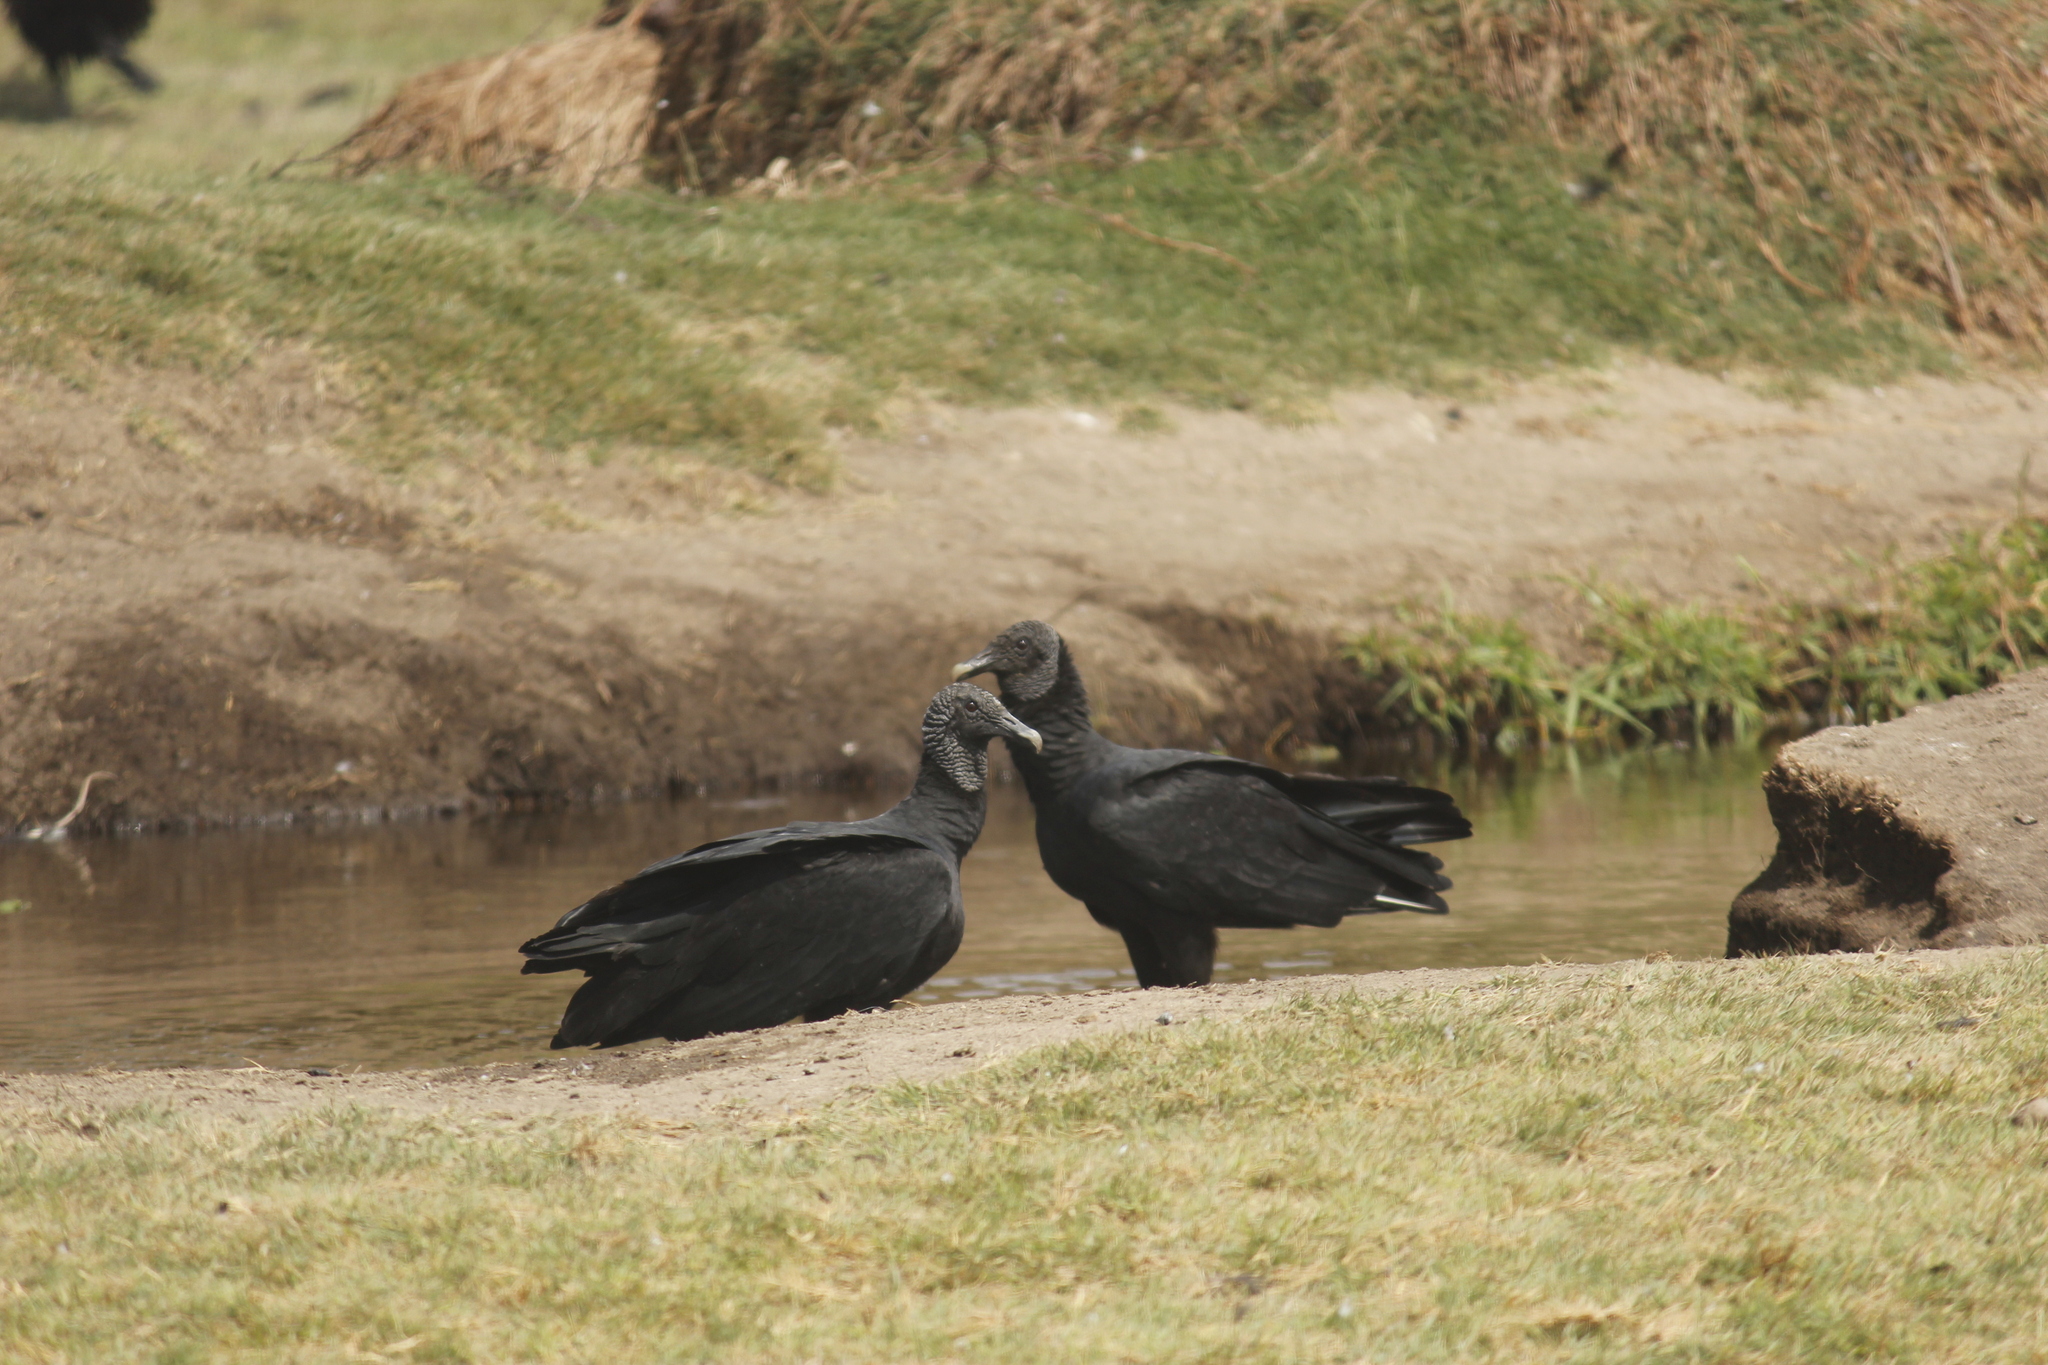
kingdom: Animalia
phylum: Chordata
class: Aves
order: Accipitriformes
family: Cathartidae
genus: Coragyps
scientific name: Coragyps atratus
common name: Black vulture
